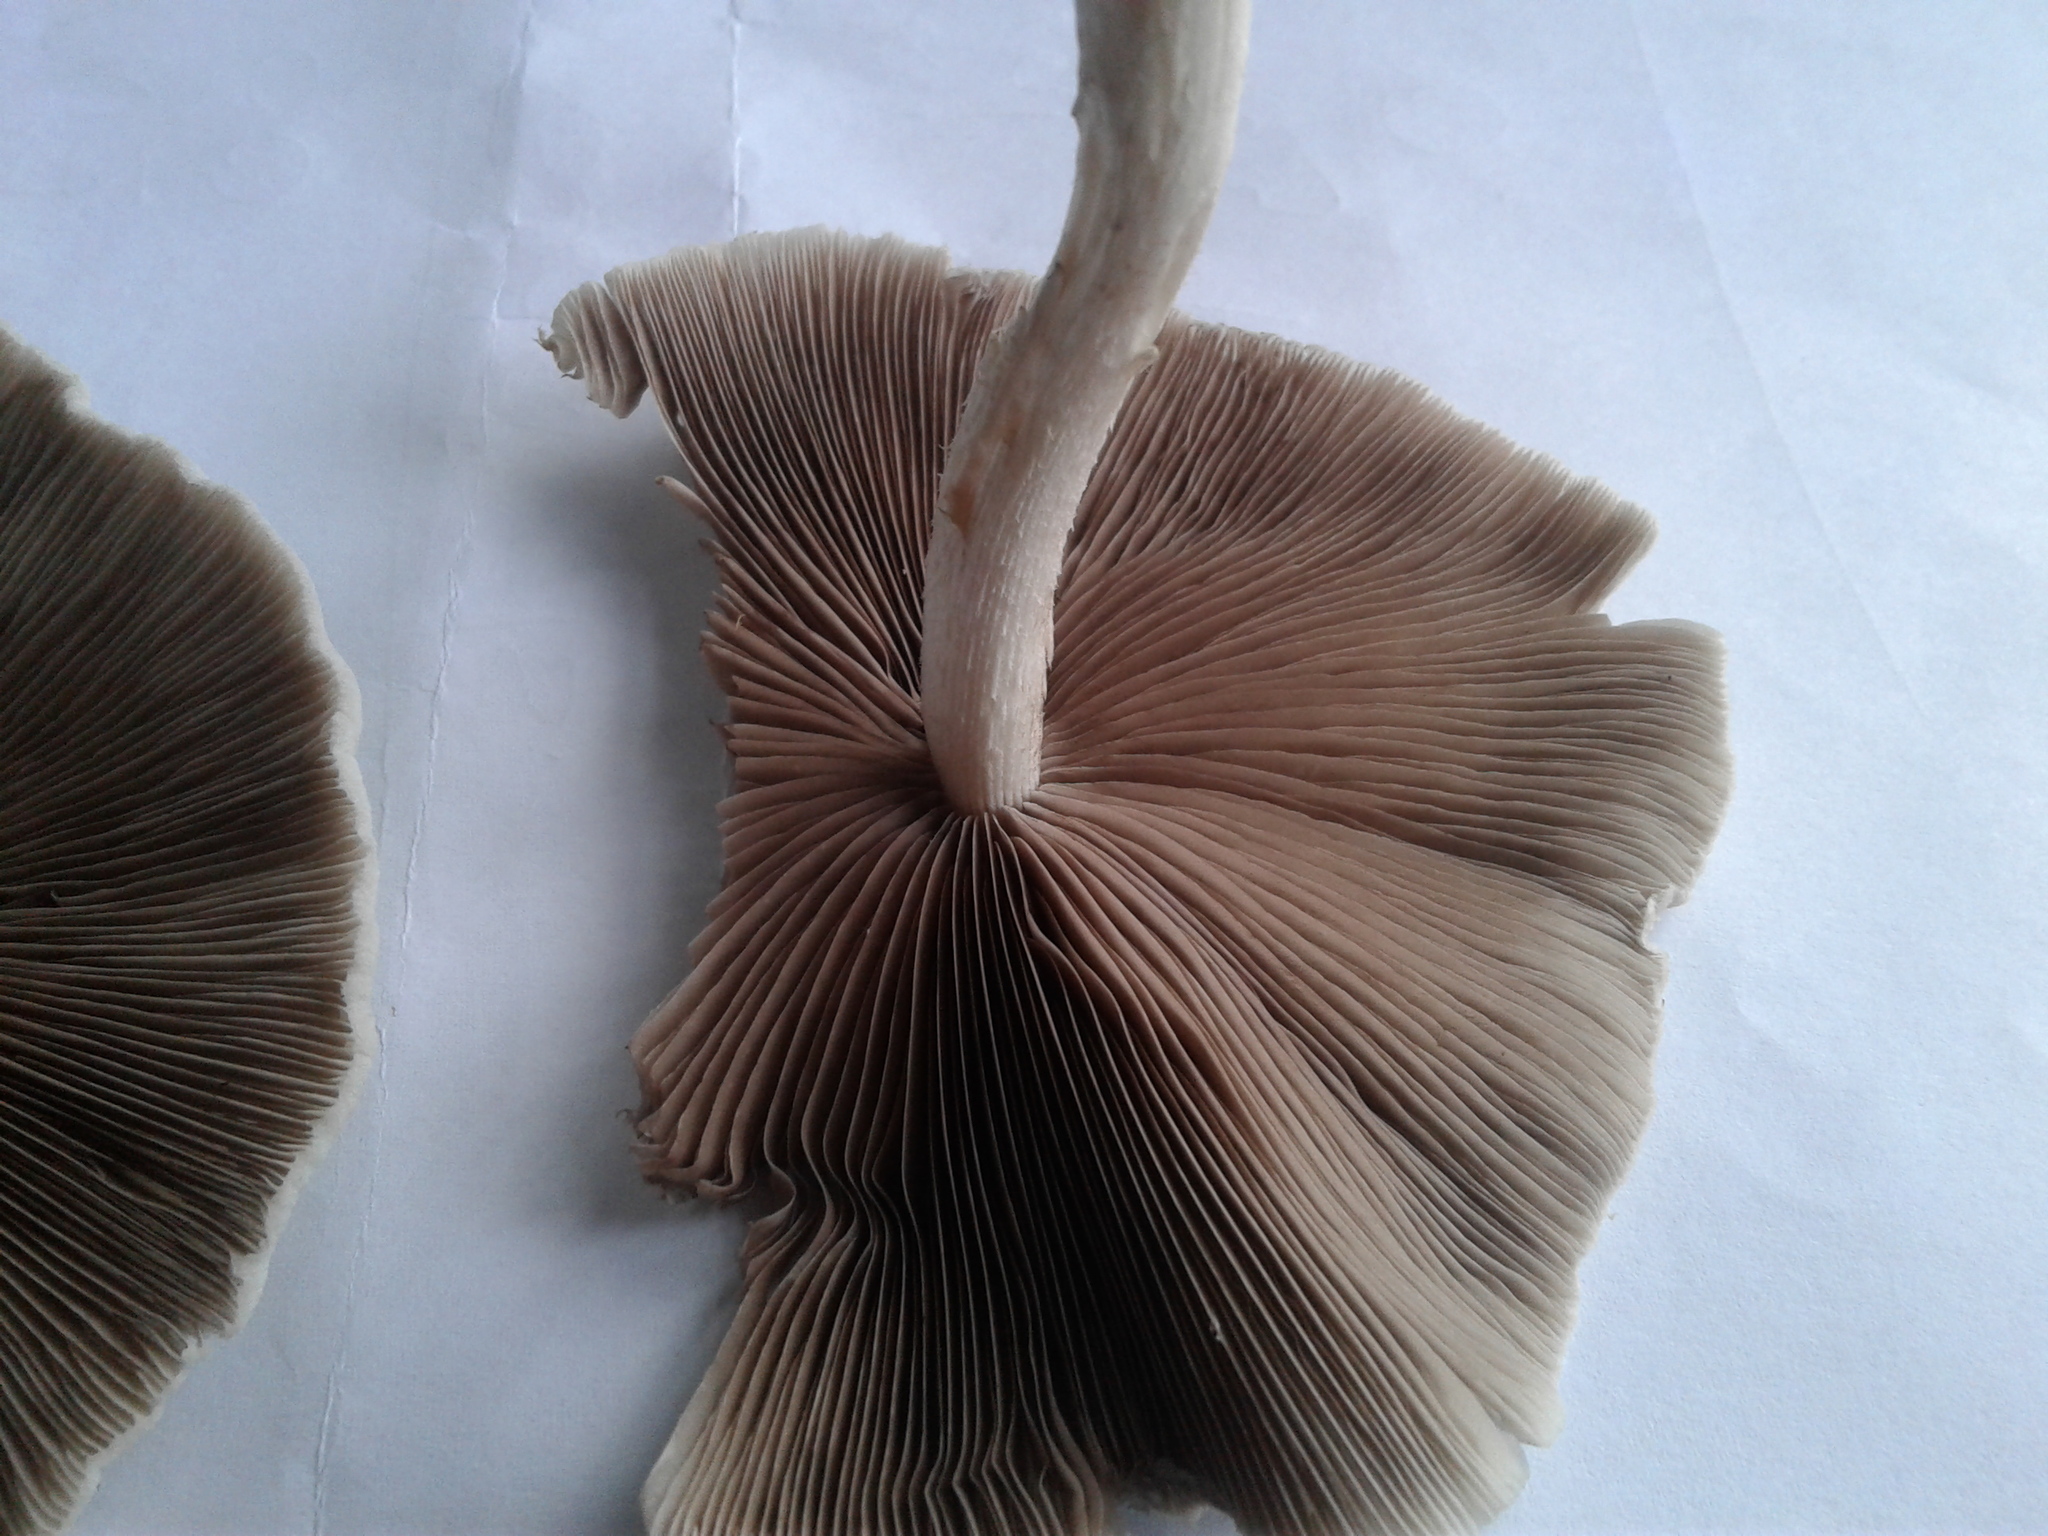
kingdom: Fungi
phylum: Basidiomycota
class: Agaricomycetes
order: Agaricales
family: Psathyrellaceae
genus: Candolleomyces
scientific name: Candolleomyces
